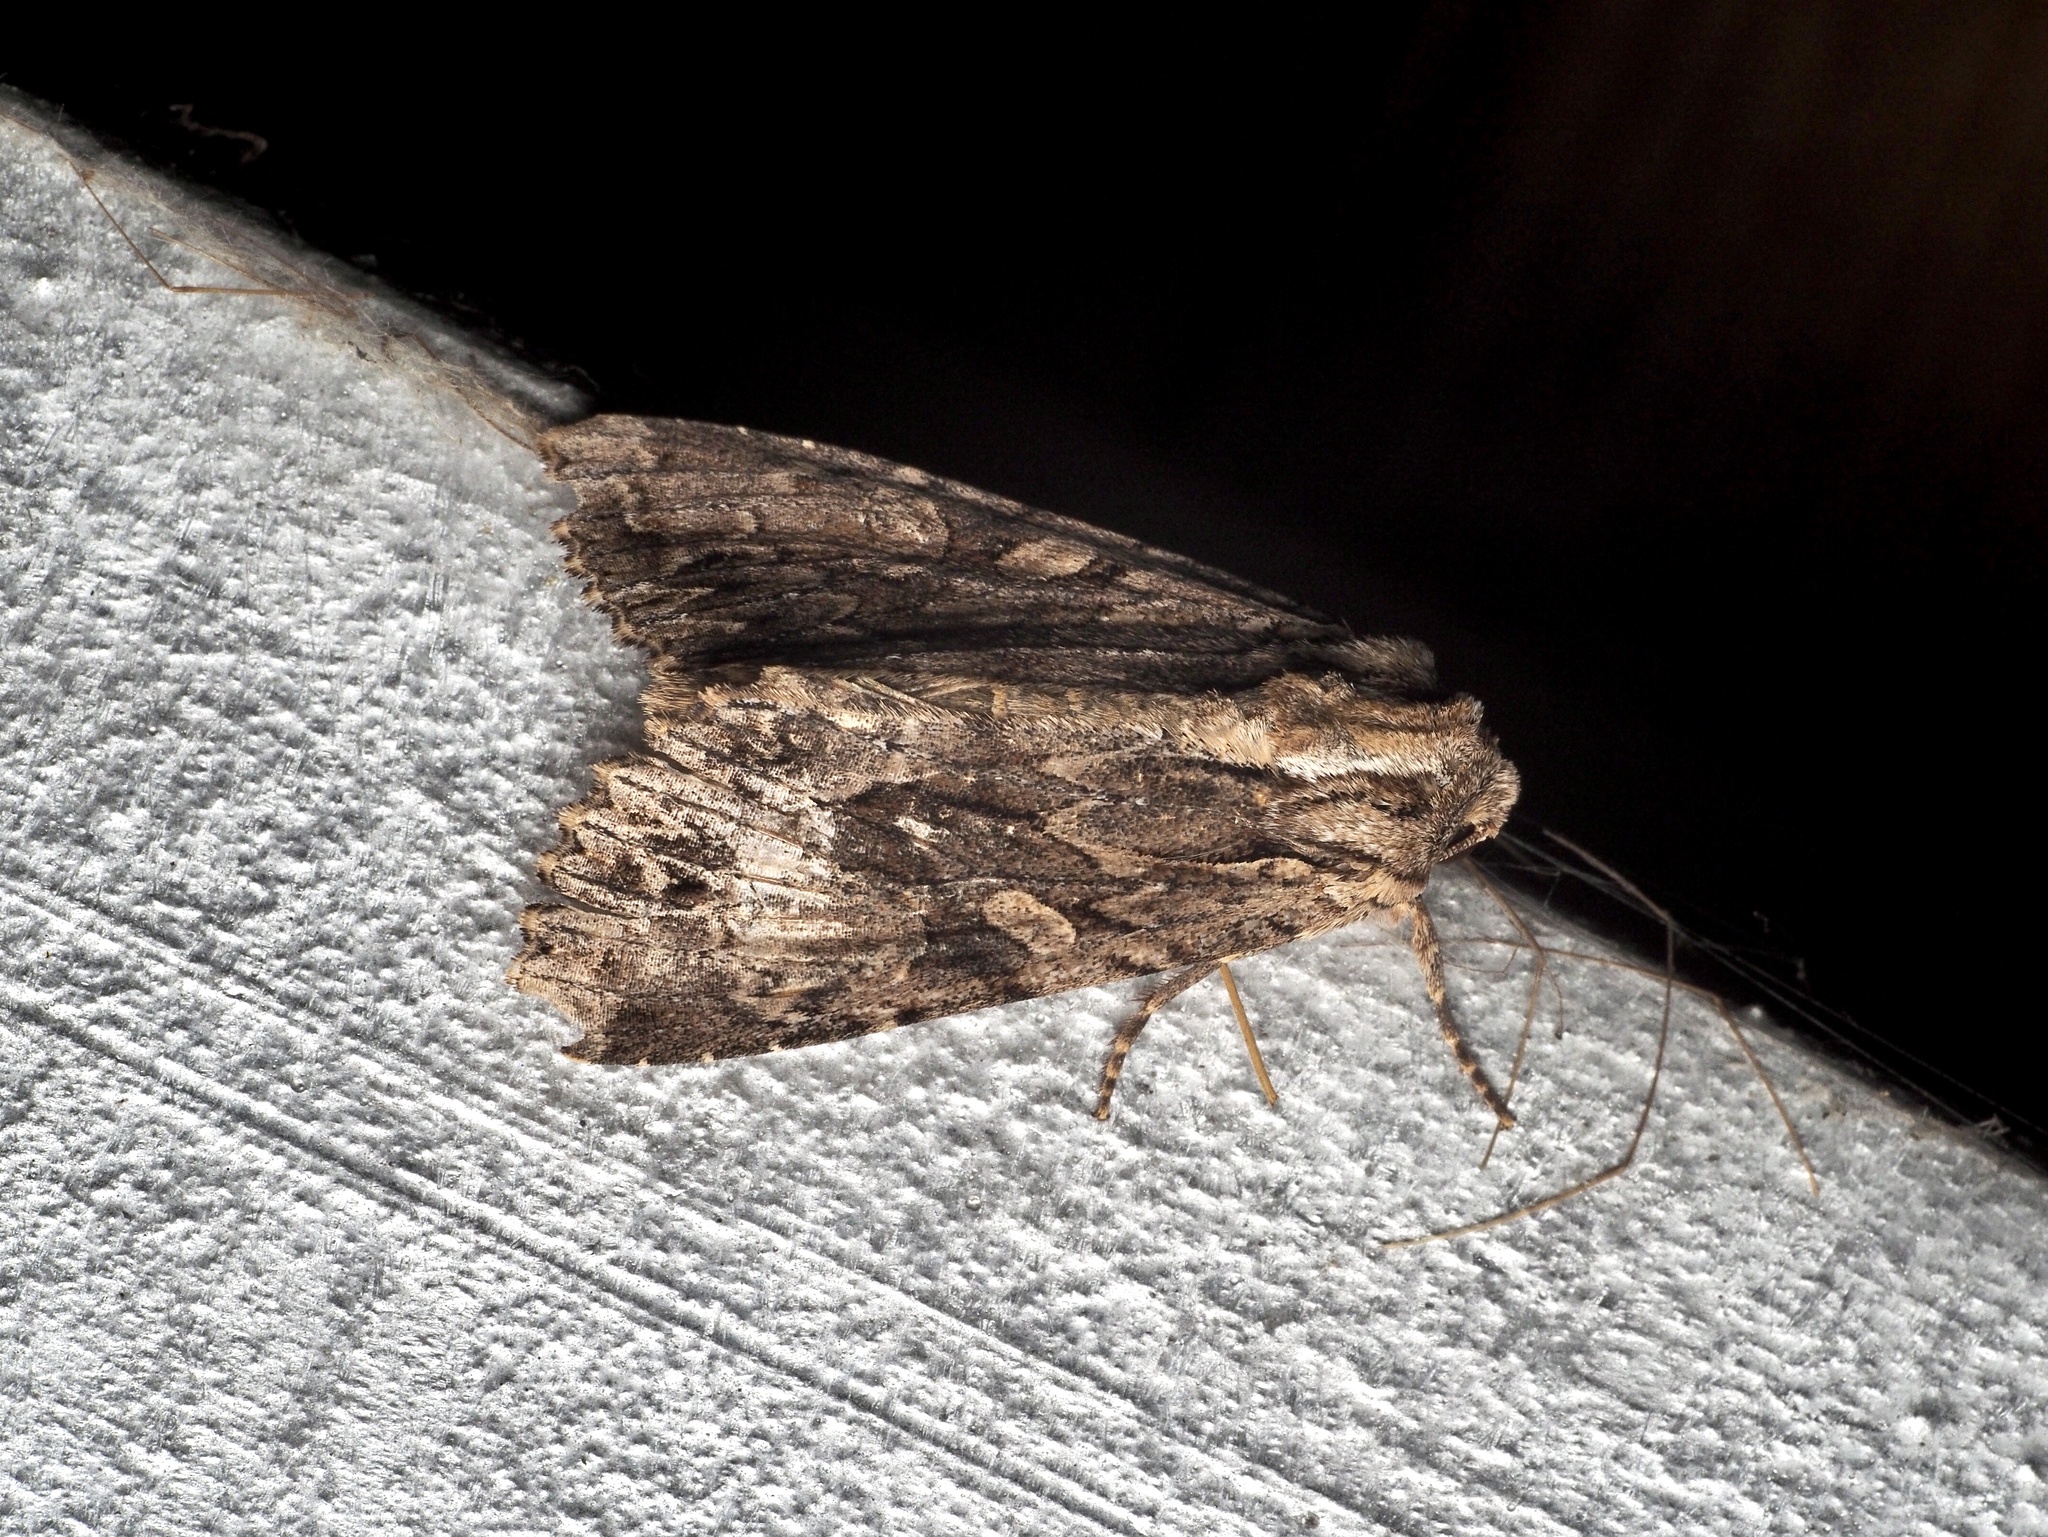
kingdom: Animalia
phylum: Arthropoda
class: Insecta
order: Lepidoptera
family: Noctuidae
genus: Apamea
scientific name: Apamea monoglypha
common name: Dark arches
